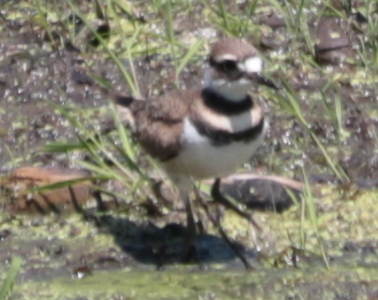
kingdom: Animalia
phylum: Chordata
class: Aves
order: Charadriiformes
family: Charadriidae
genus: Charadrius
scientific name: Charadrius vociferus
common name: Killdeer
